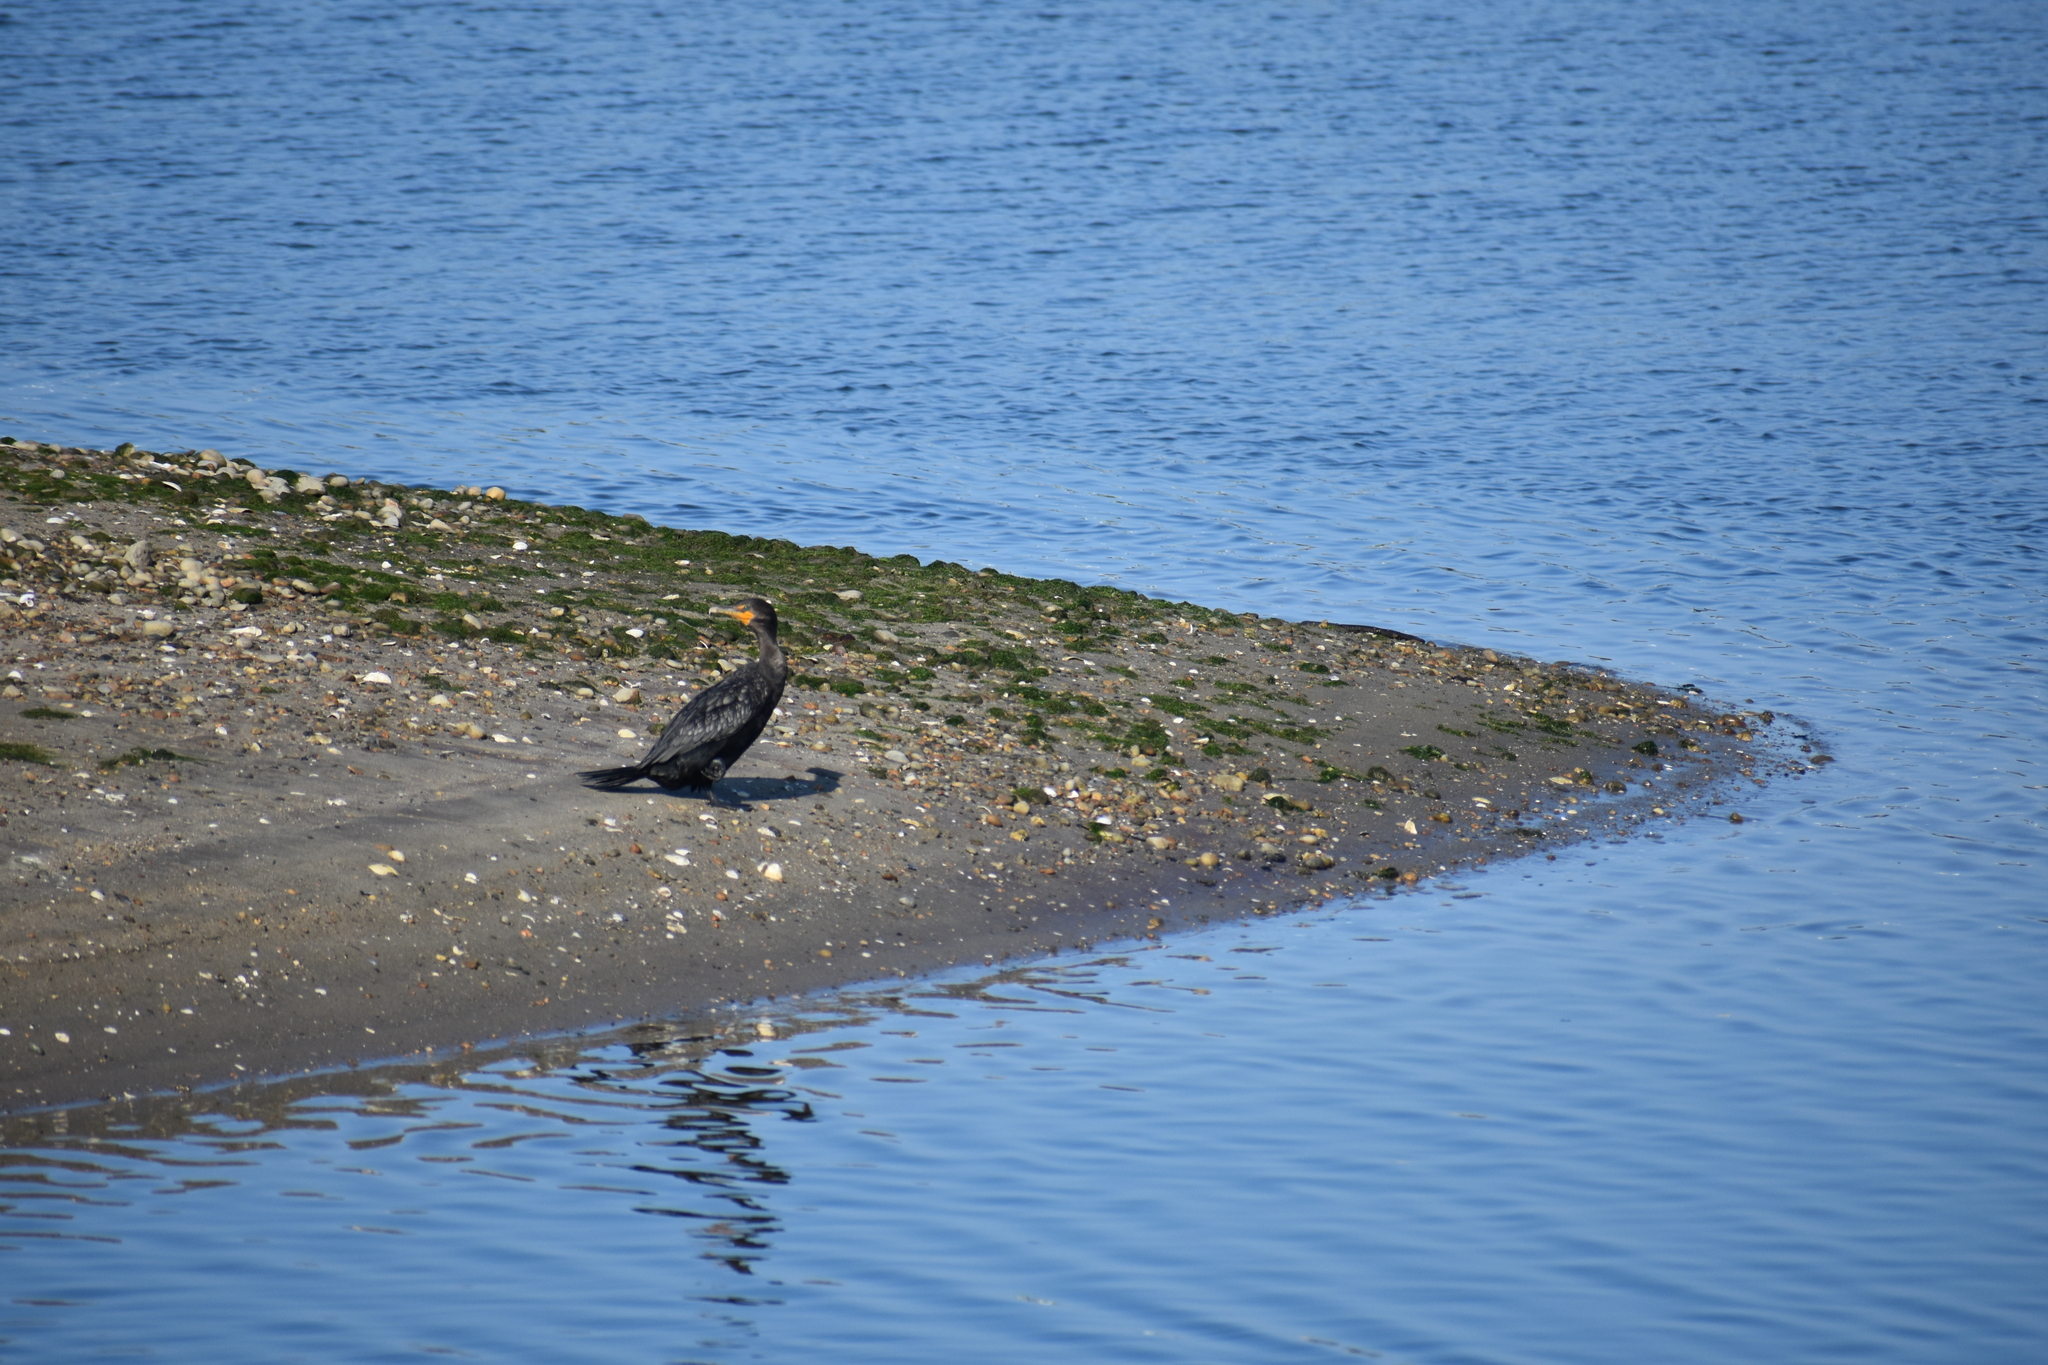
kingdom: Animalia
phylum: Chordata
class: Aves
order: Suliformes
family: Phalacrocoracidae
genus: Phalacrocorax
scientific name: Phalacrocorax auritus
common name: Double-crested cormorant
